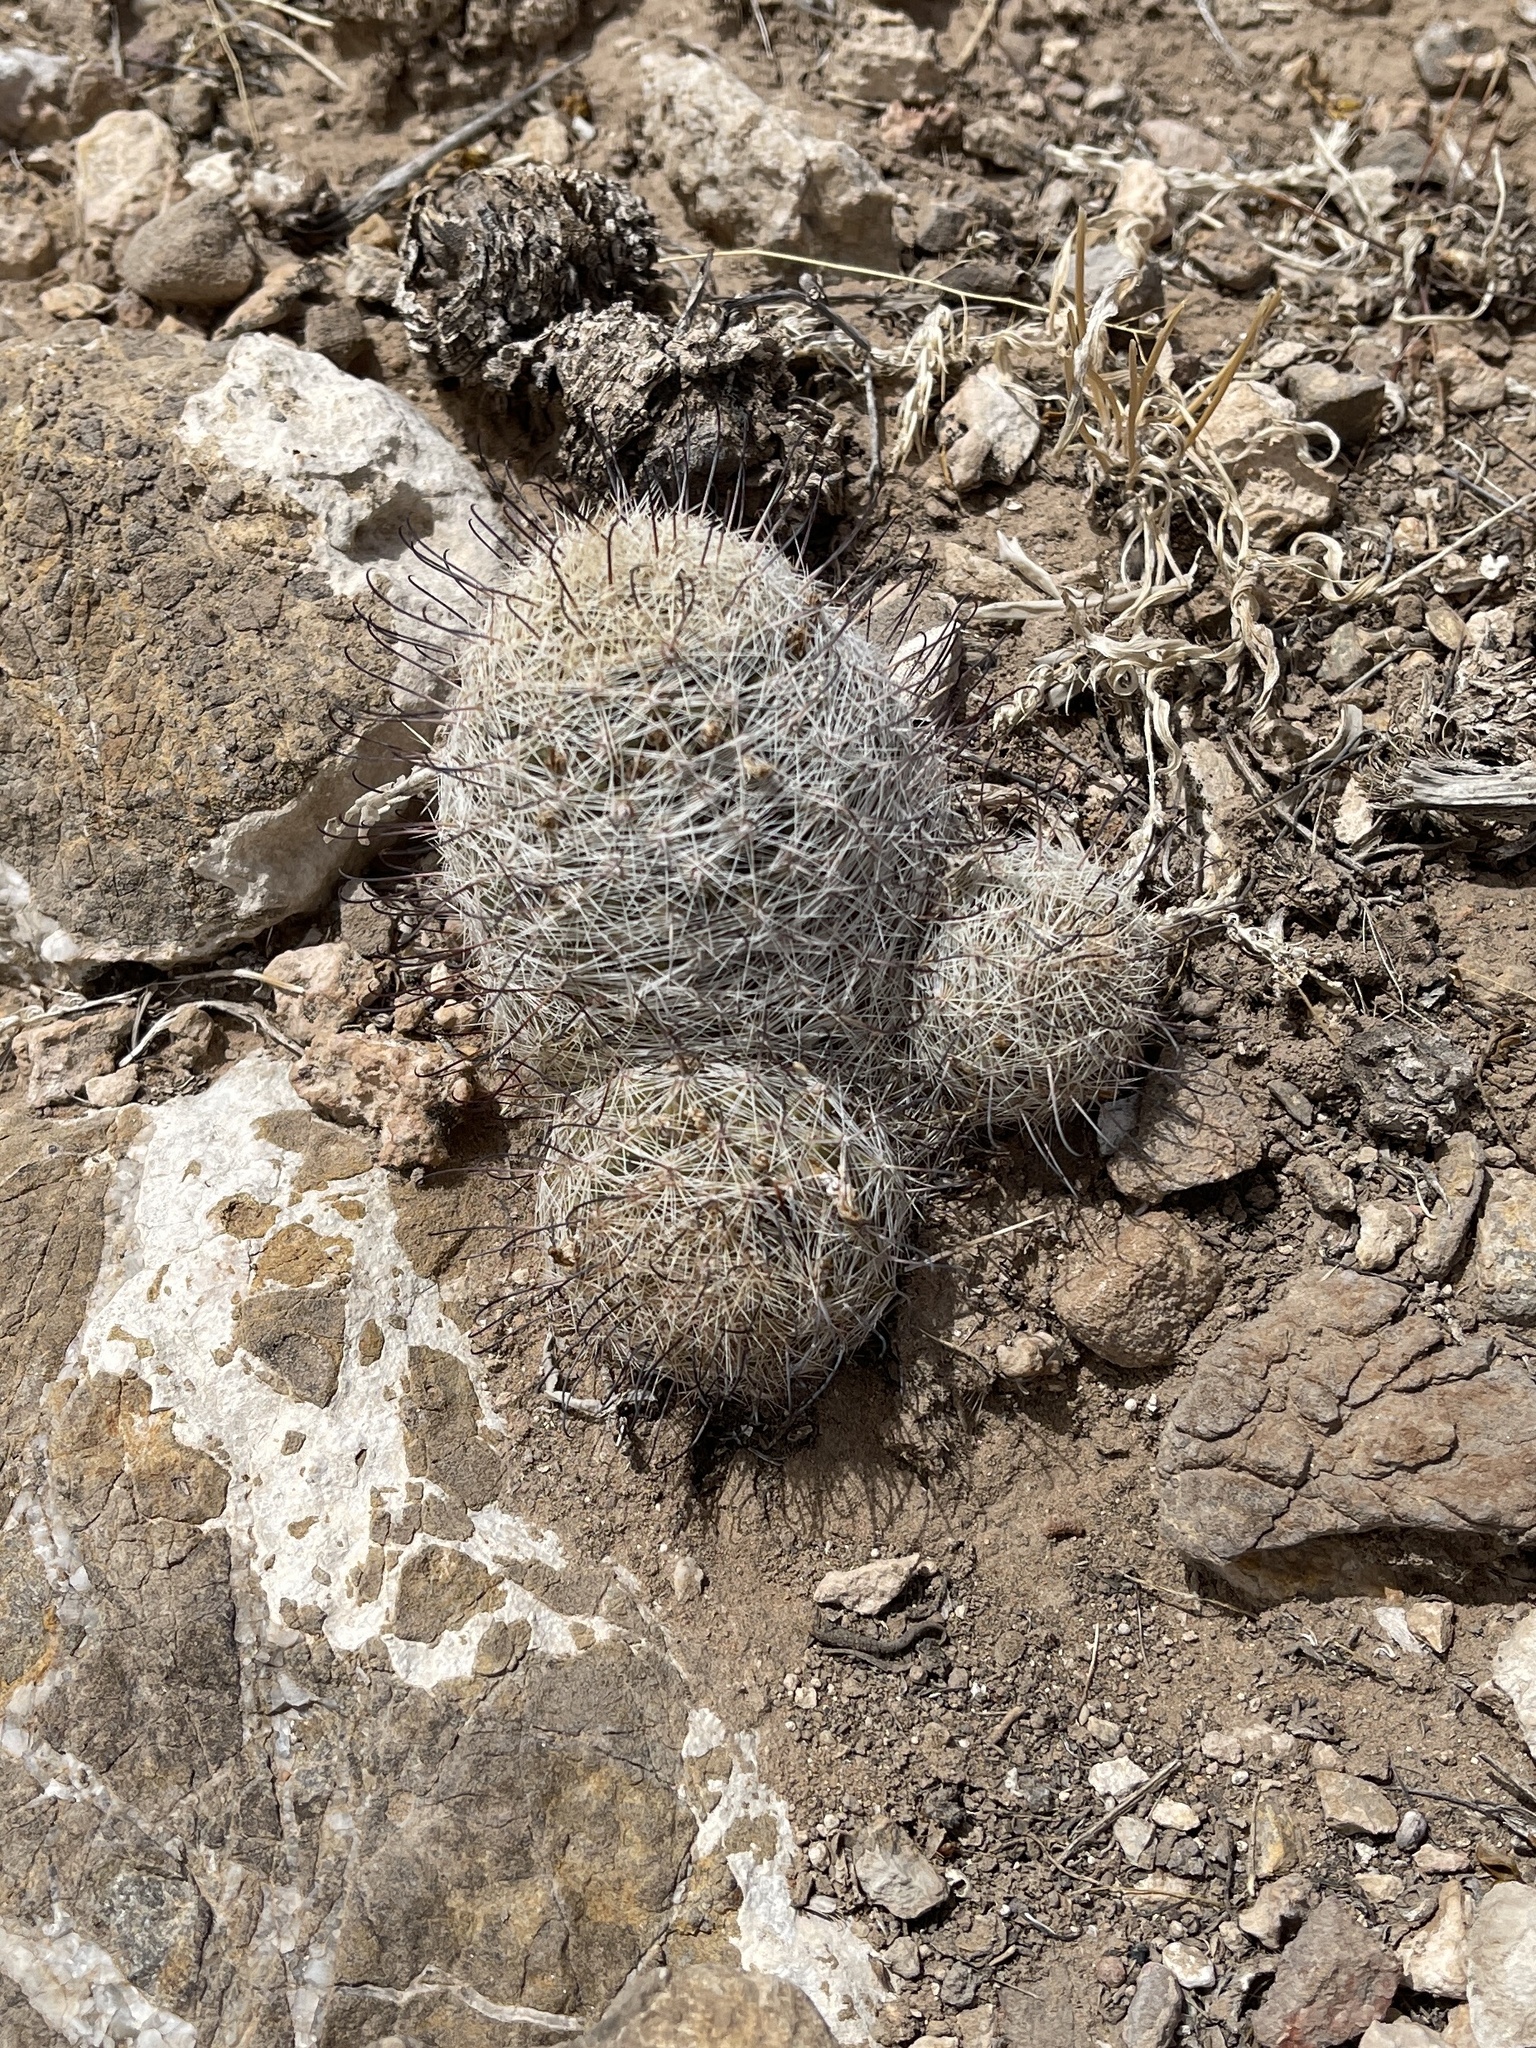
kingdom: Plantae
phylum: Tracheophyta
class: Magnoliopsida
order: Caryophyllales
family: Cactaceae
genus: Cochemiea
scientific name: Cochemiea grahamii
